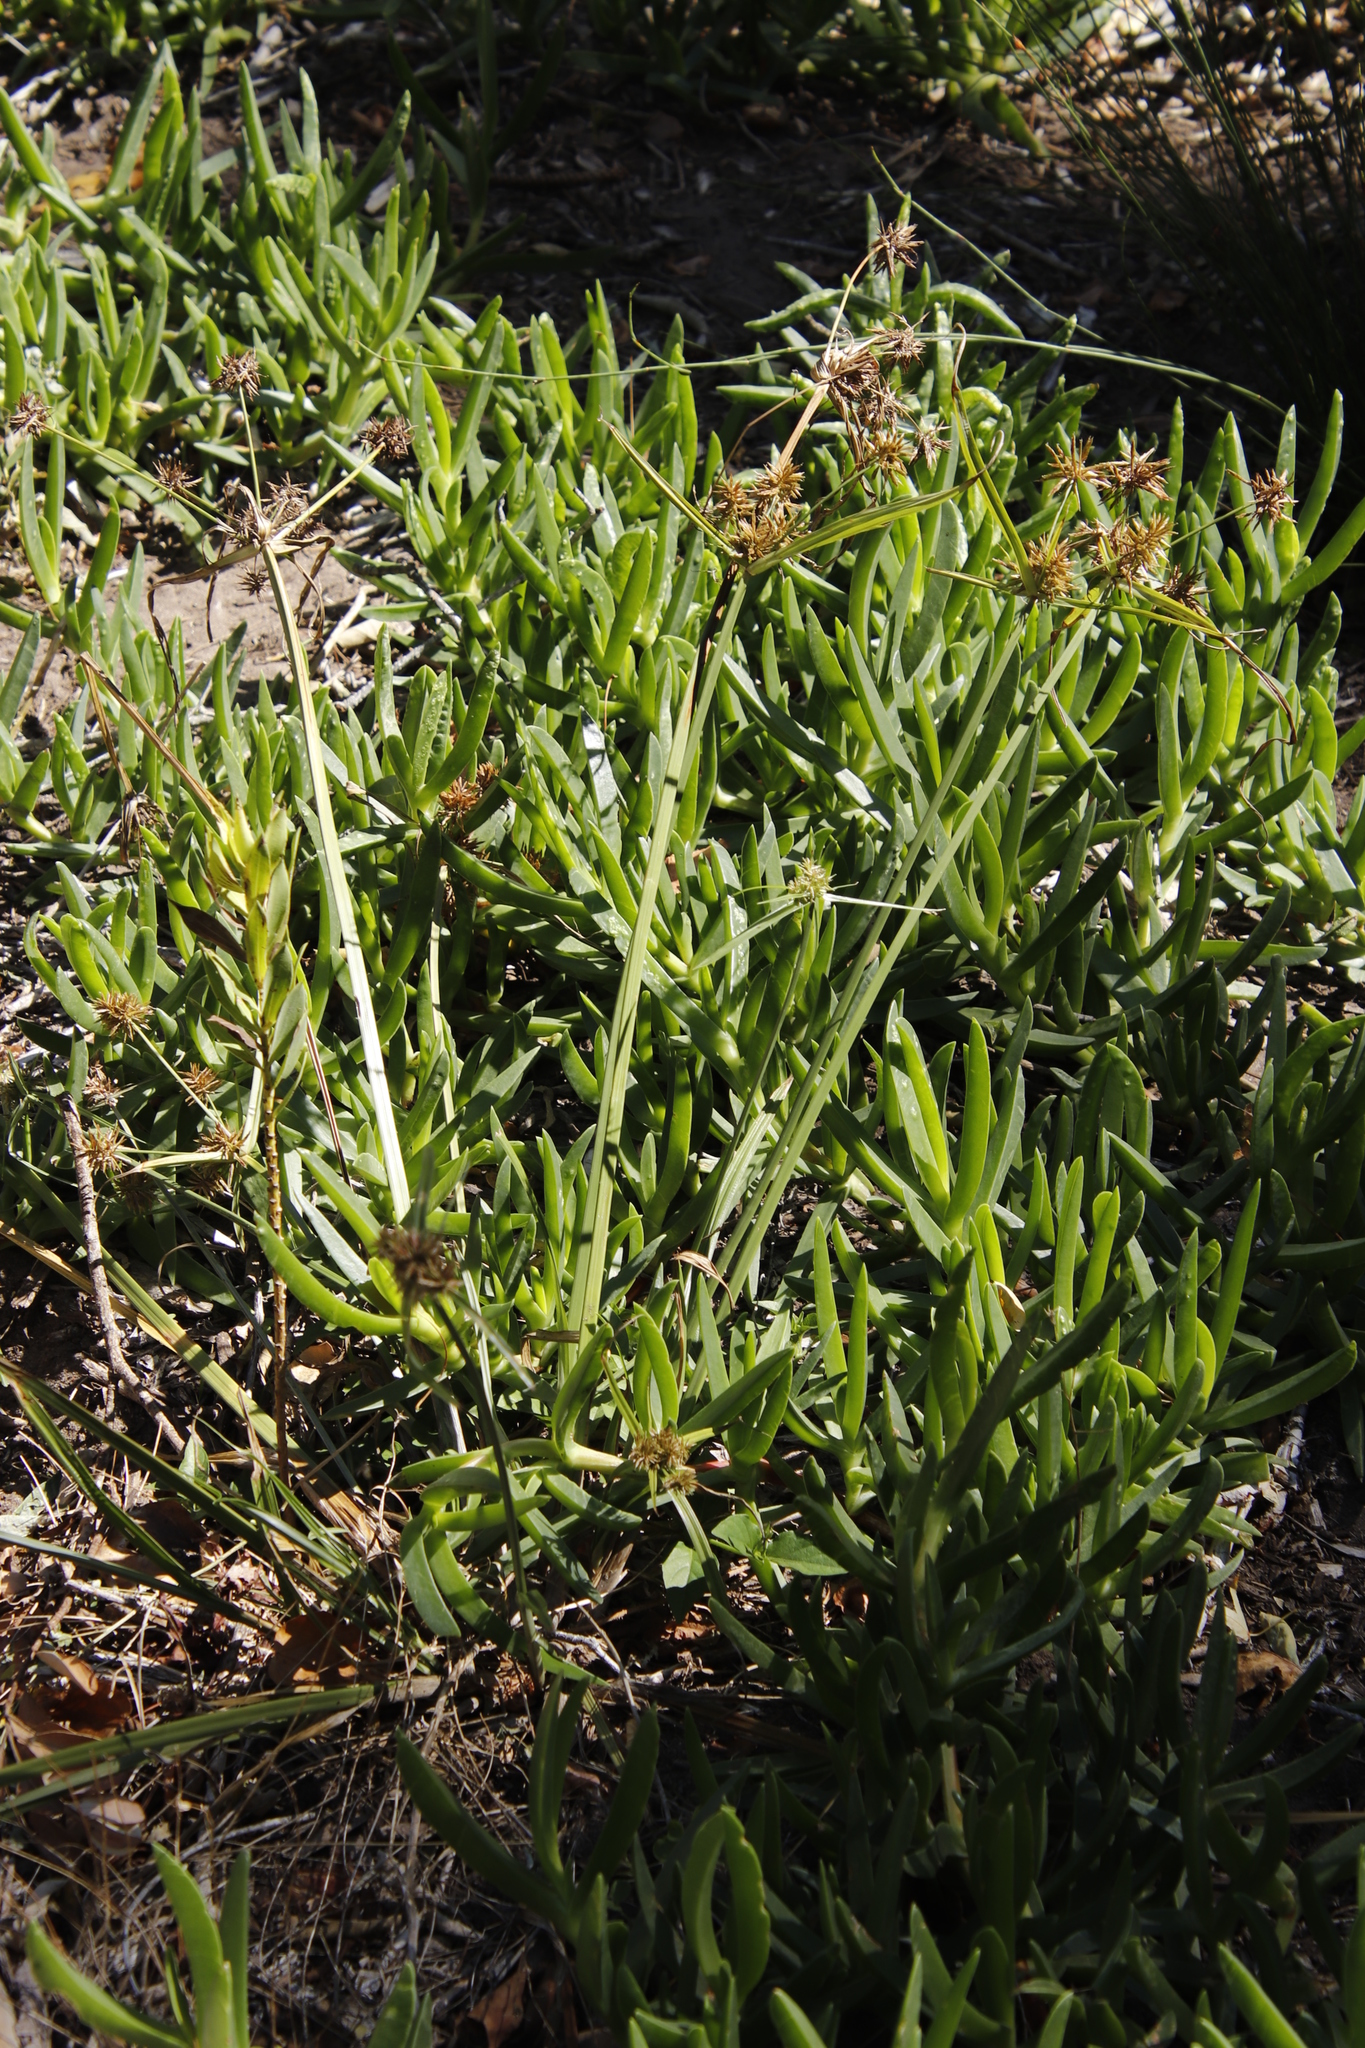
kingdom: Plantae
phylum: Tracheophyta
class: Magnoliopsida
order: Caryophyllales
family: Aizoaceae
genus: Carpobrotus
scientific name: Carpobrotus edulis
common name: Hottentot-fig
